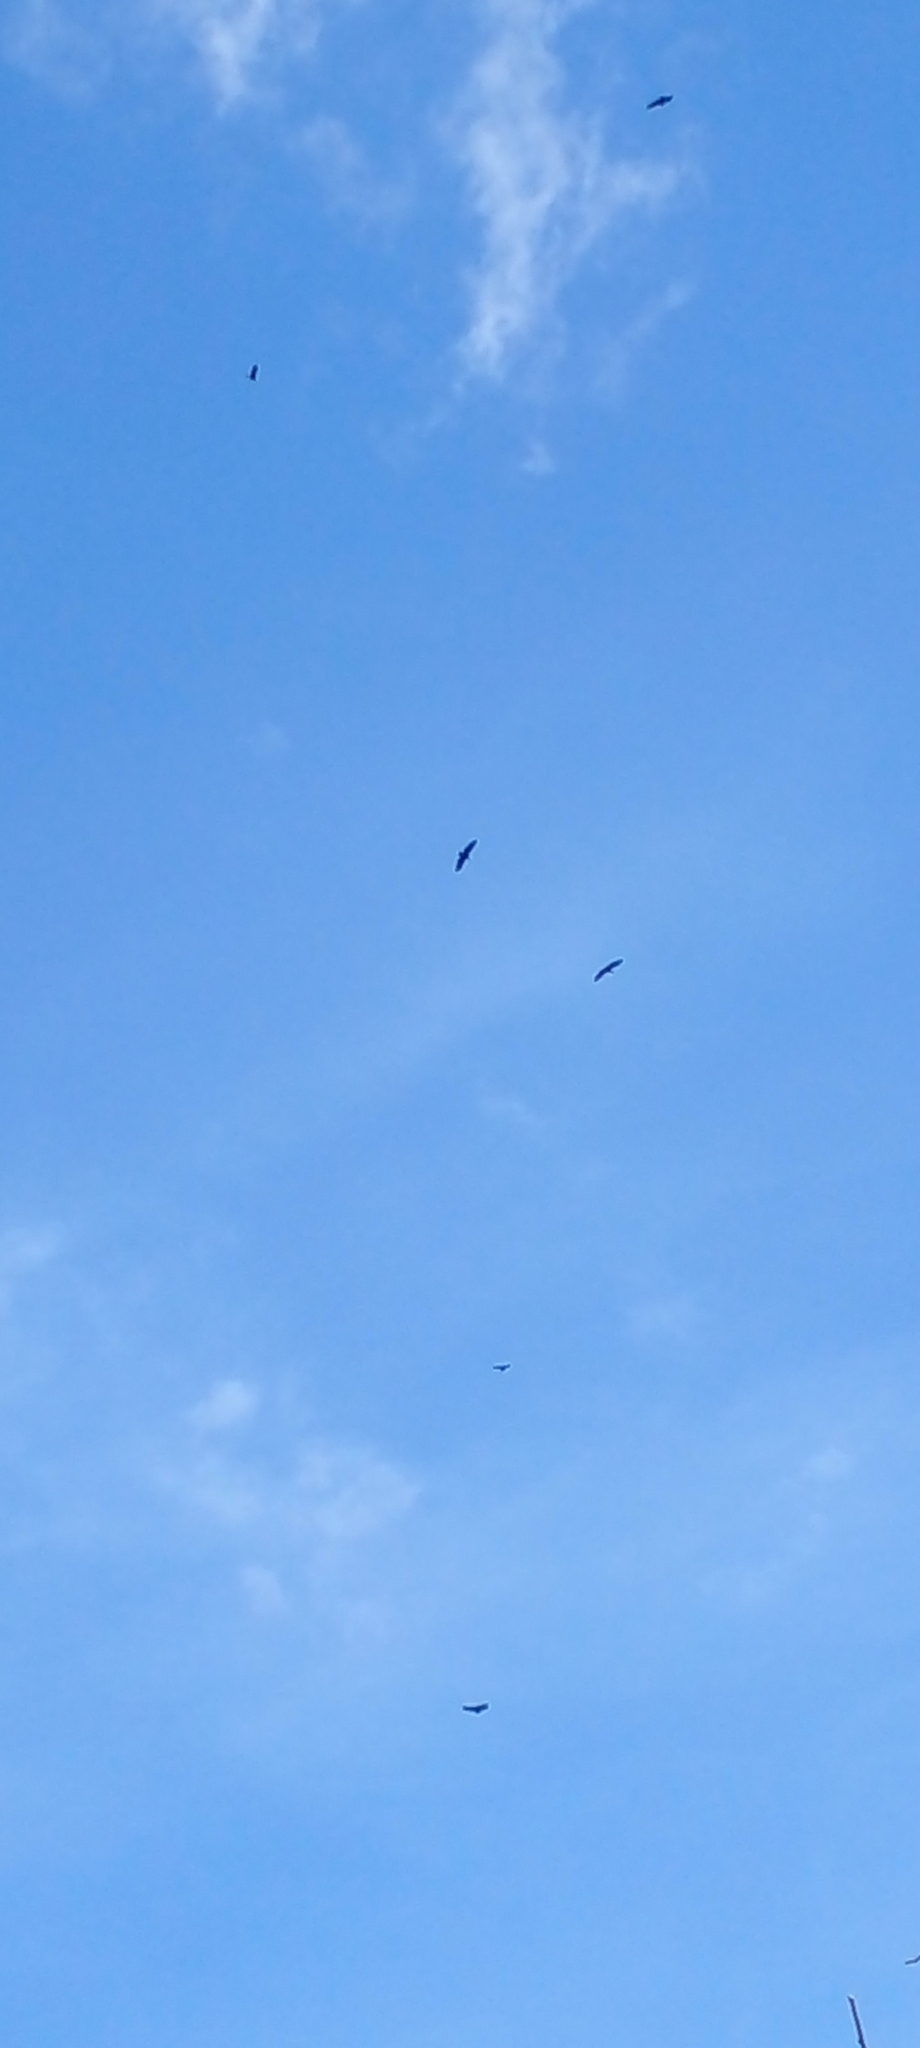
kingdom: Animalia
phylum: Chordata
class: Aves
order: Accipitriformes
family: Cathartidae
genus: Cathartes
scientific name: Cathartes aura
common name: Turkey vulture
